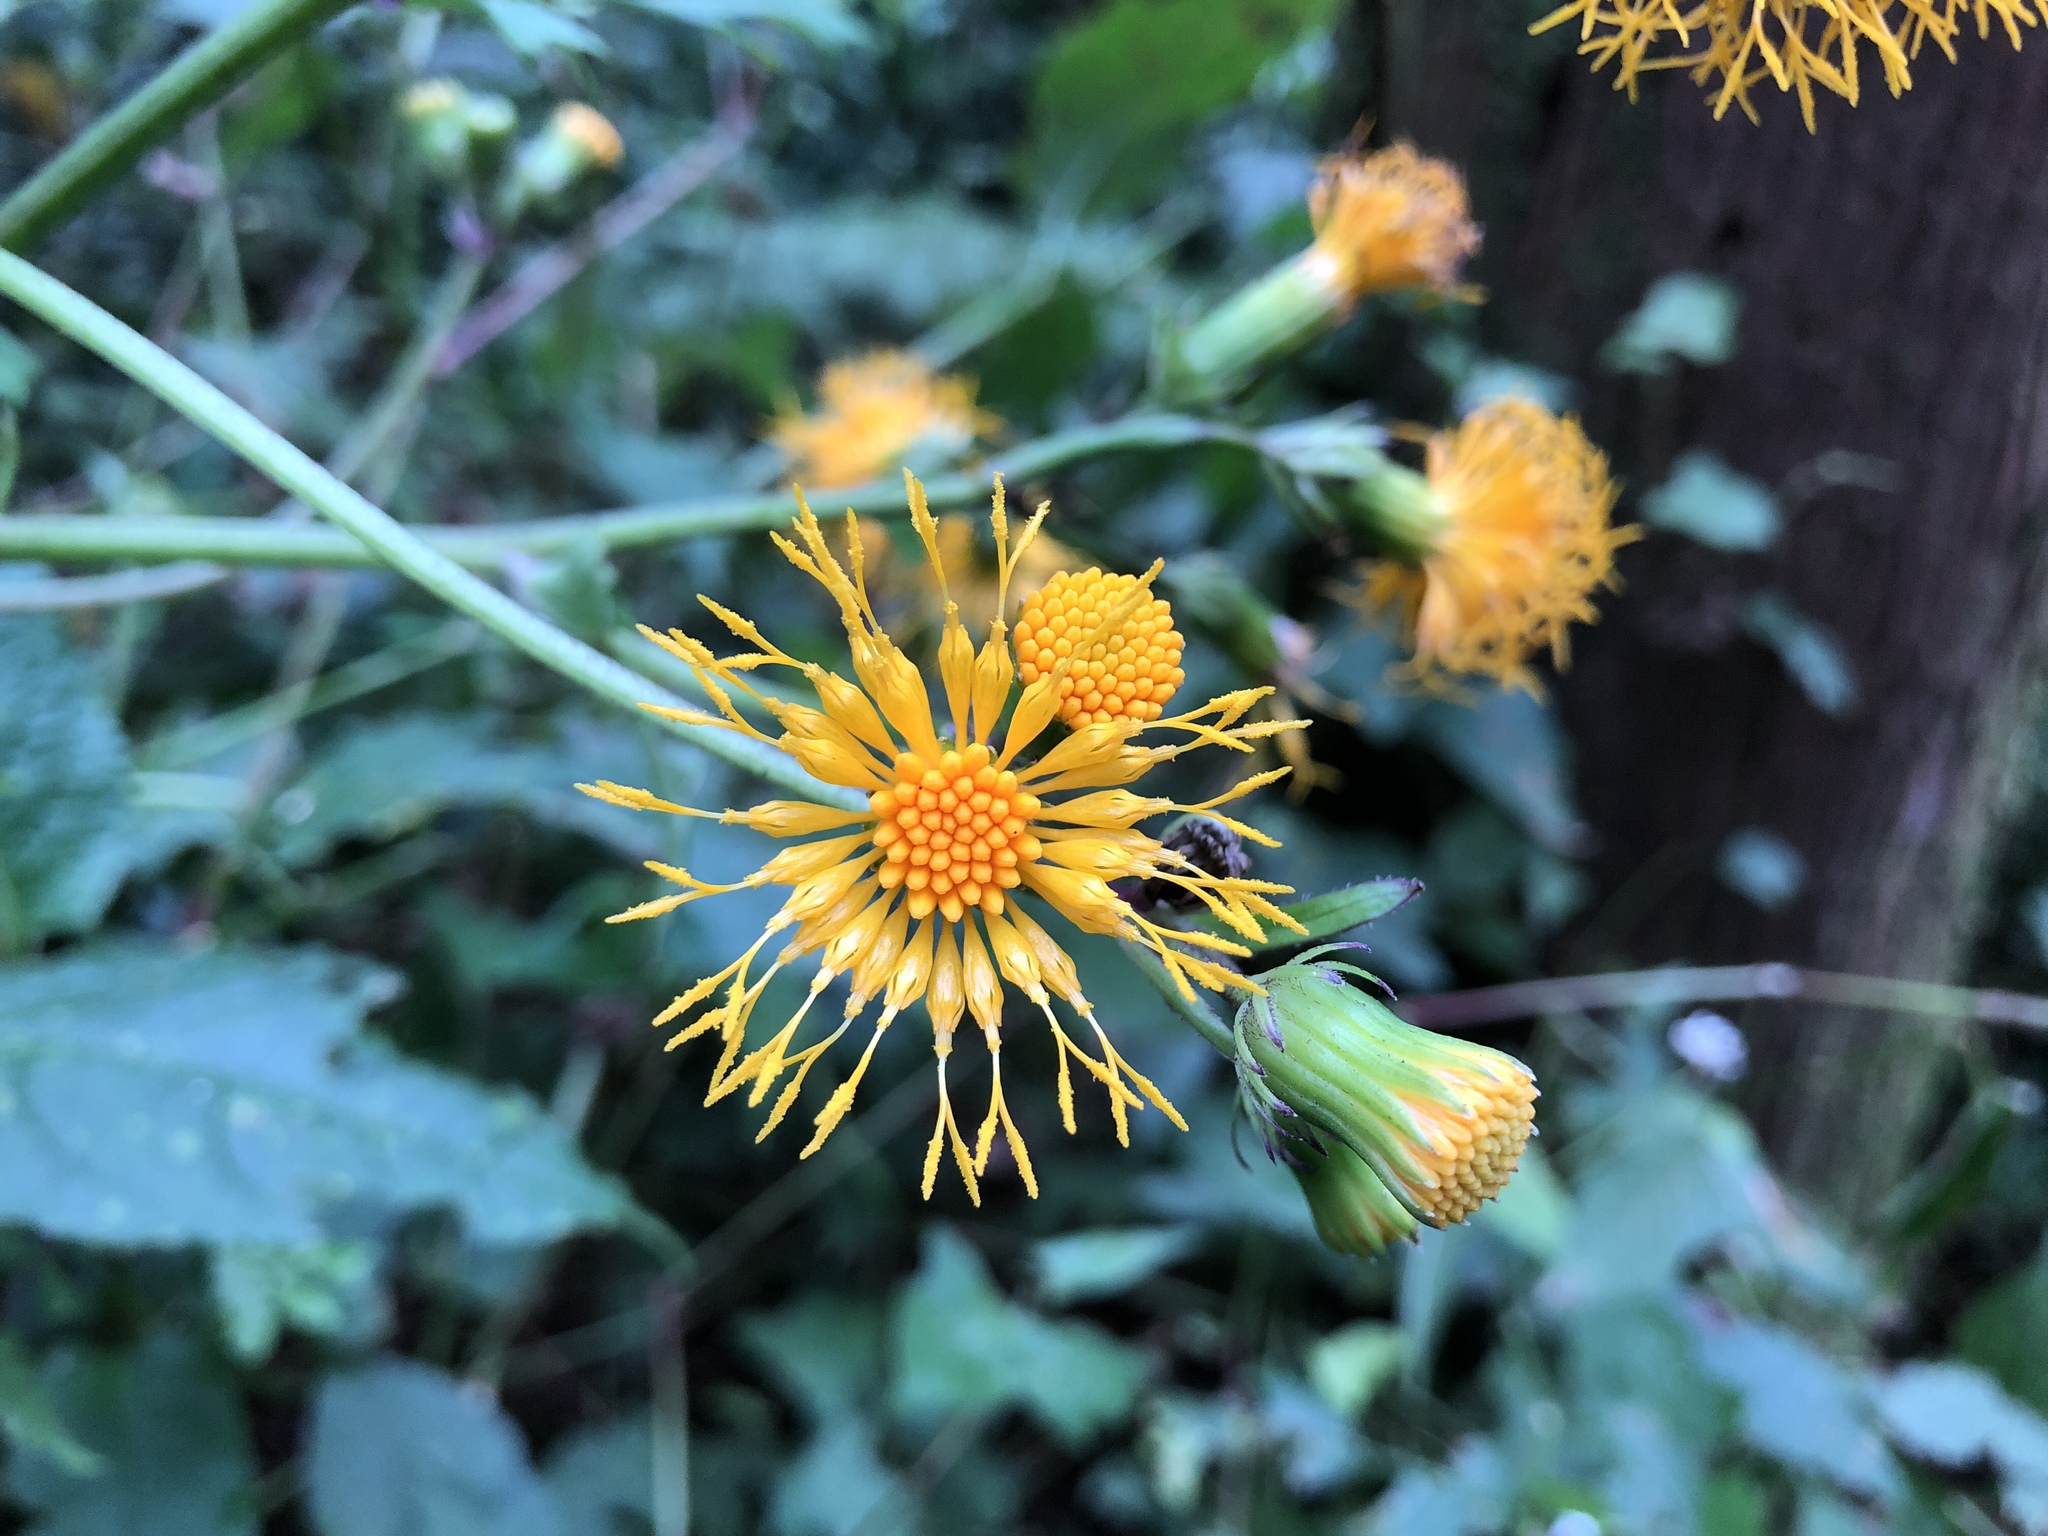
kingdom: Plantae
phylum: Tracheophyta
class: Magnoliopsida
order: Asterales
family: Asteraceae
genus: Gynura
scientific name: Gynura japonica
